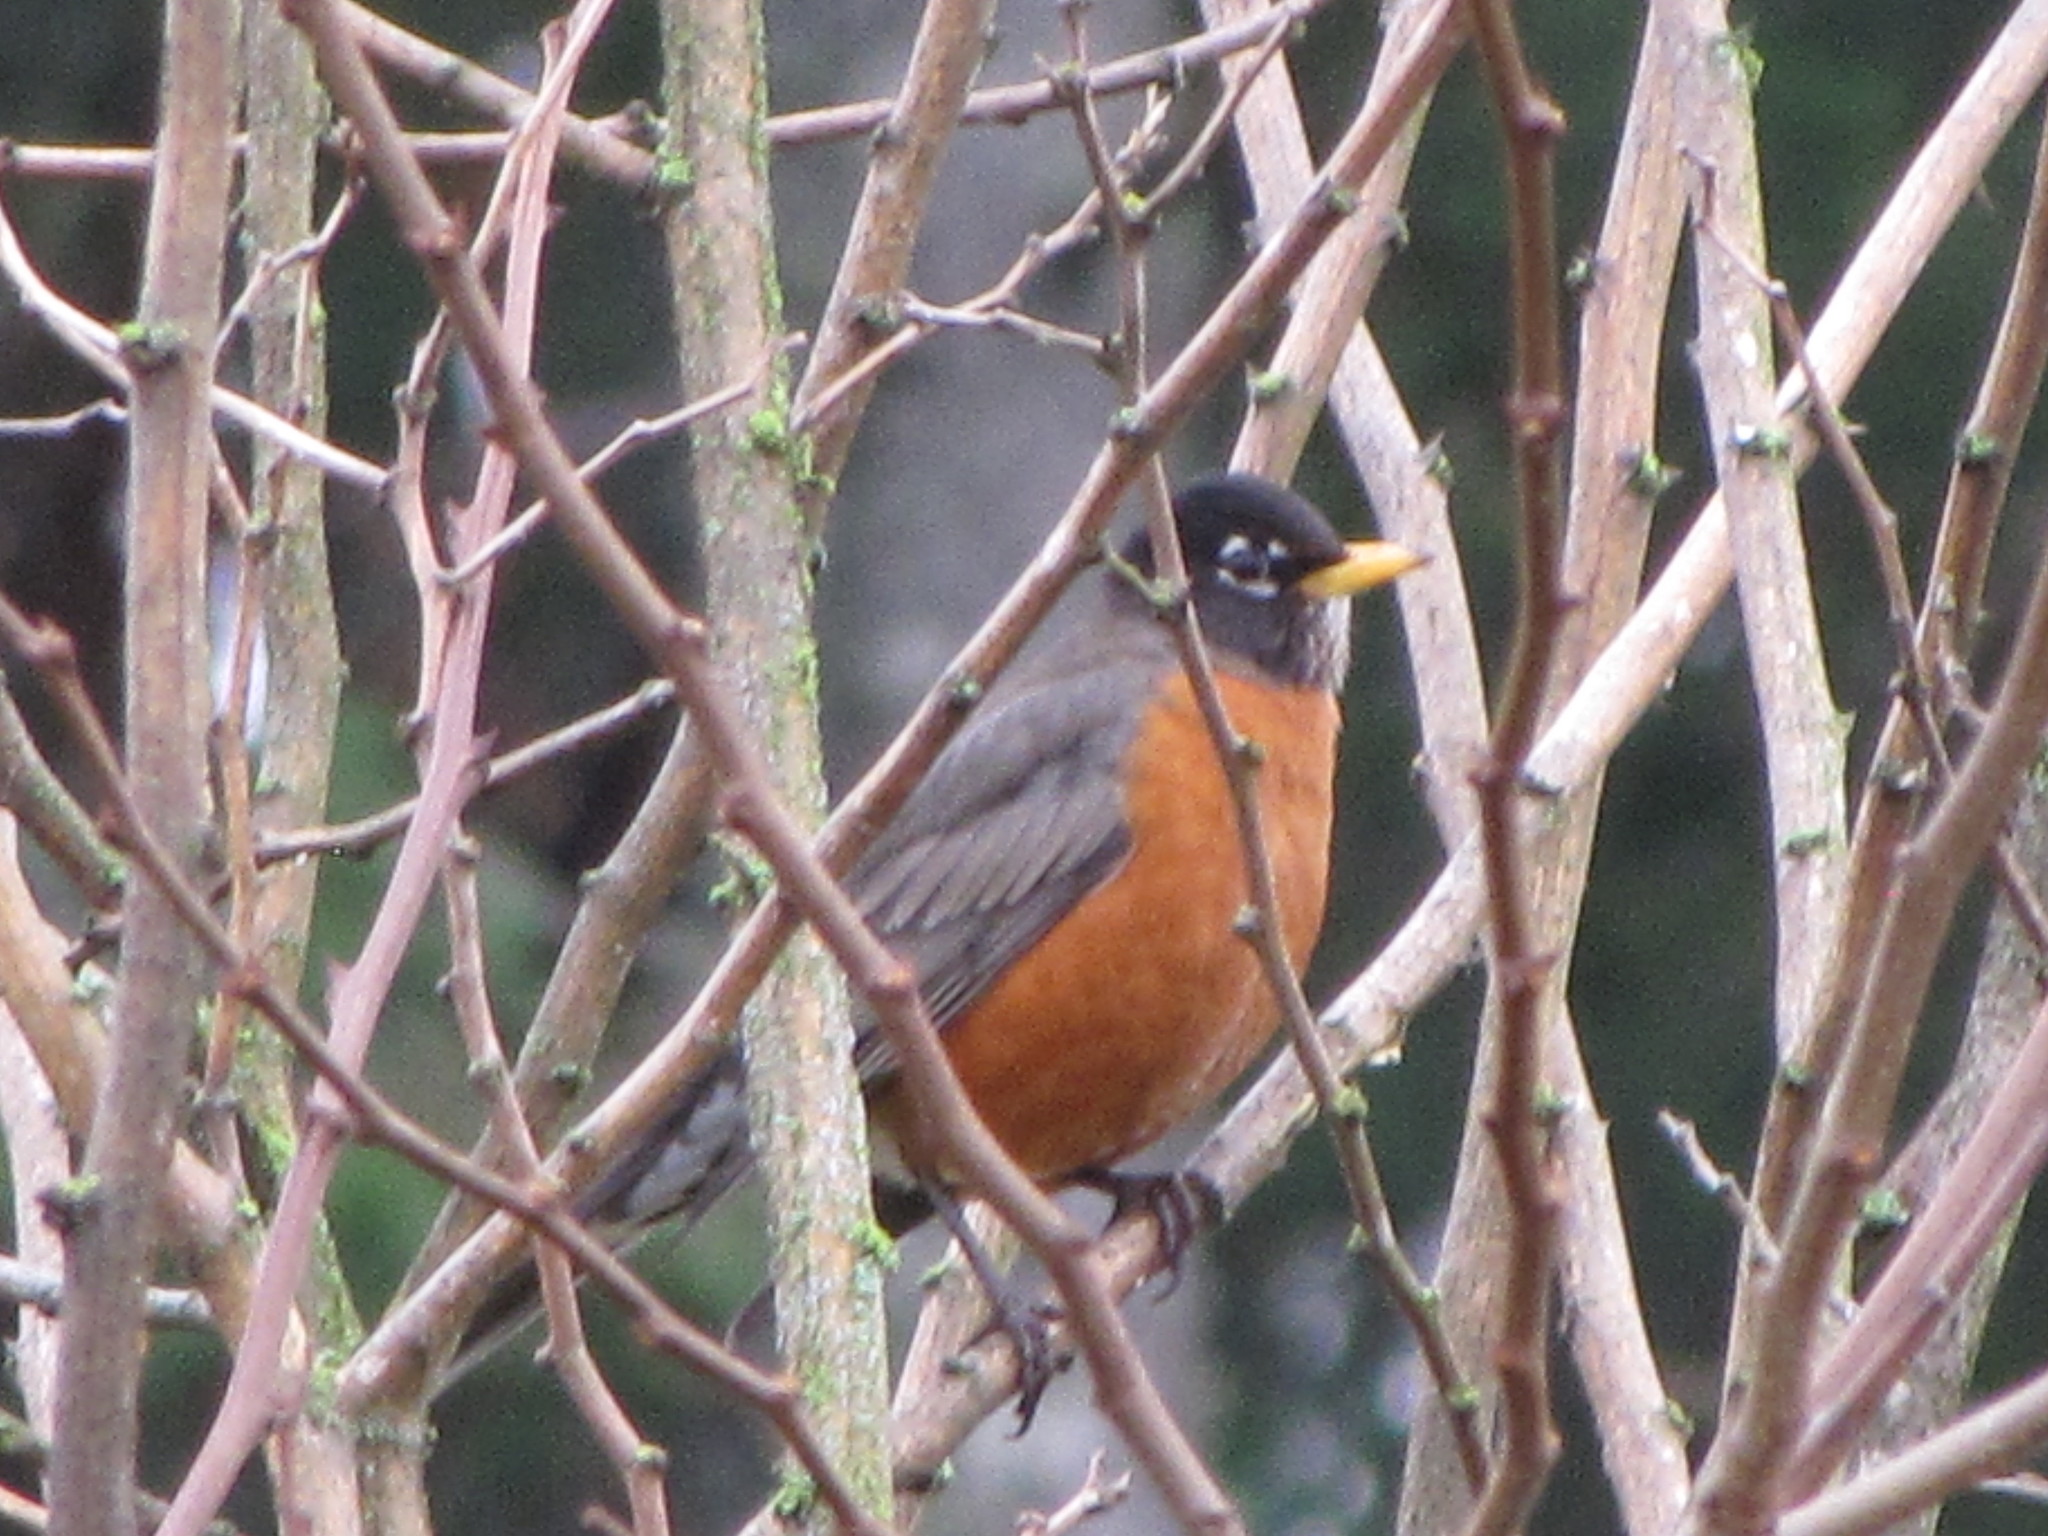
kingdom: Animalia
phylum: Chordata
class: Aves
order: Passeriformes
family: Turdidae
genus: Turdus
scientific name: Turdus migratorius
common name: American robin
